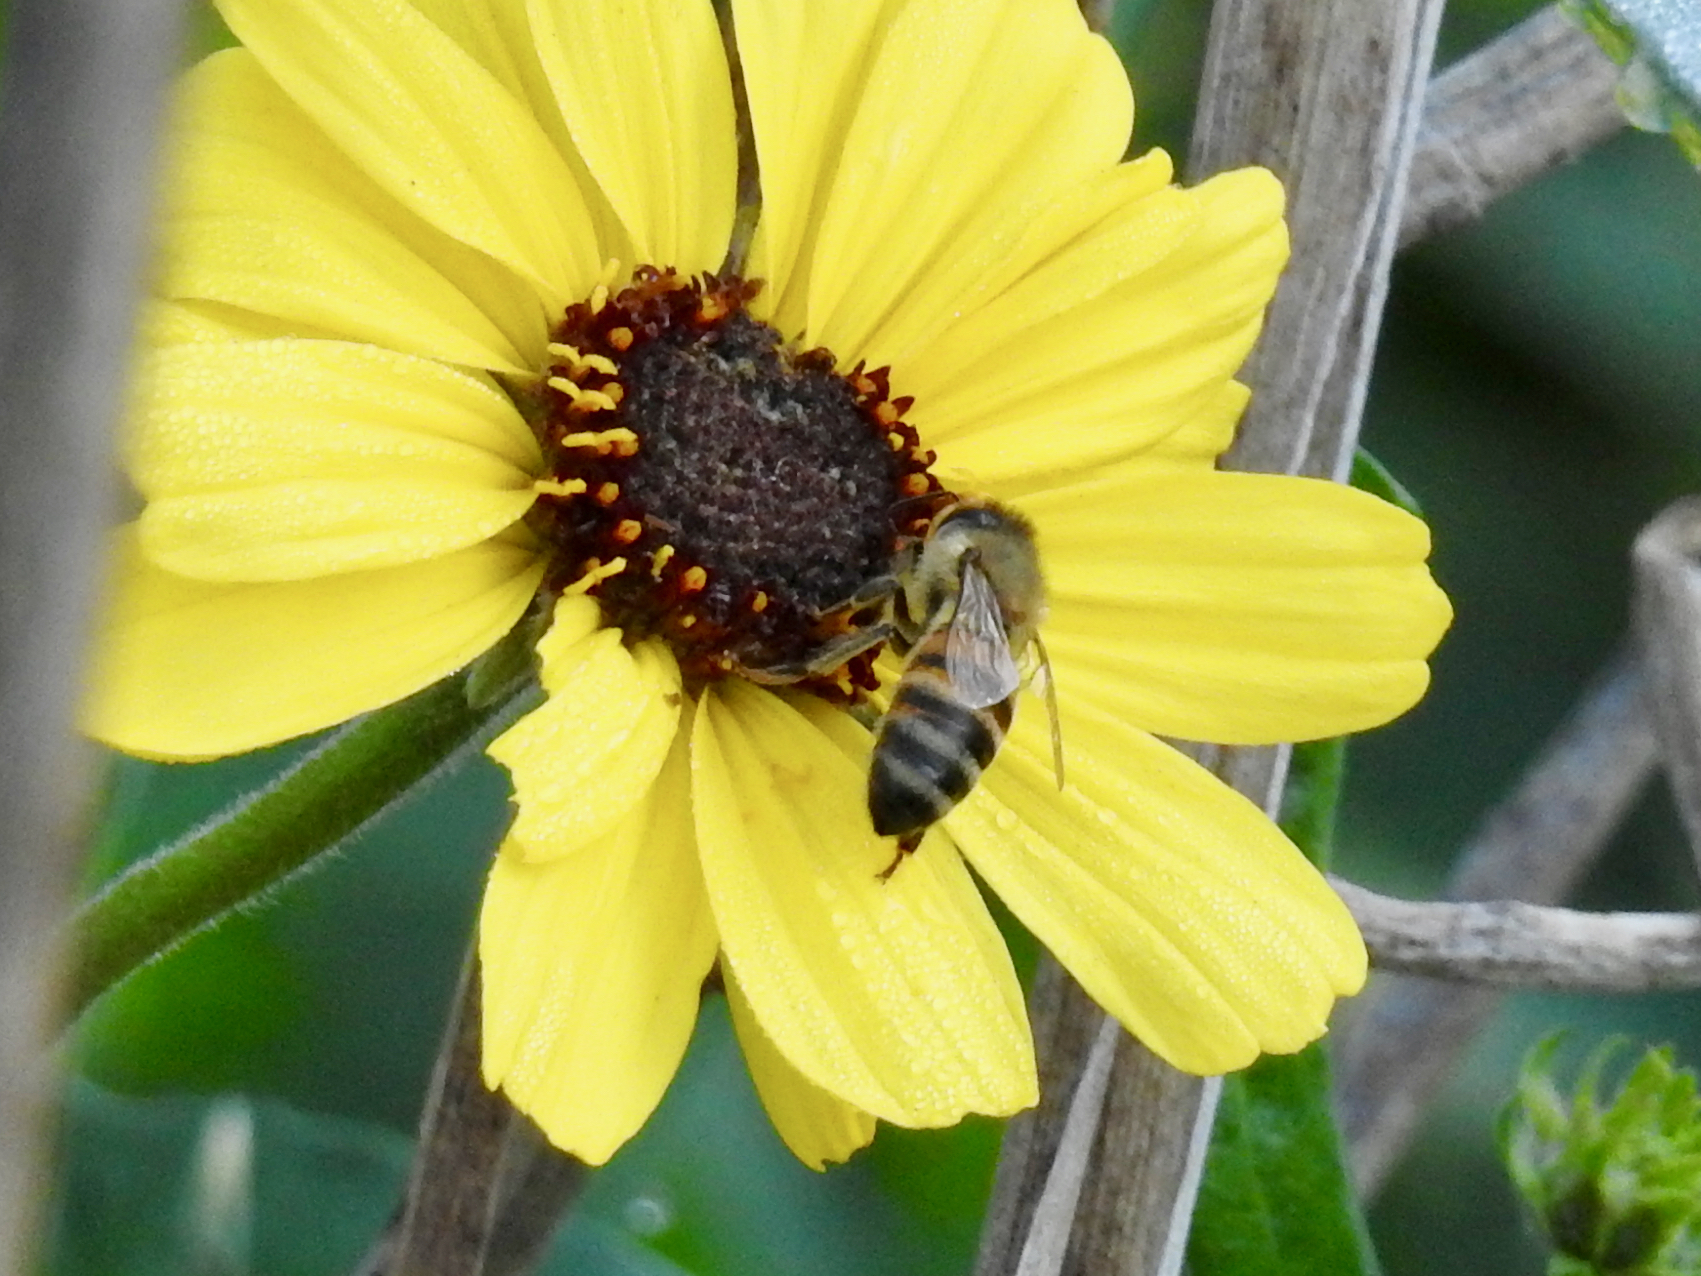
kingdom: Animalia
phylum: Arthropoda
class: Insecta
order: Hymenoptera
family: Apidae
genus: Apis
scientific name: Apis mellifera
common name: Honey bee
